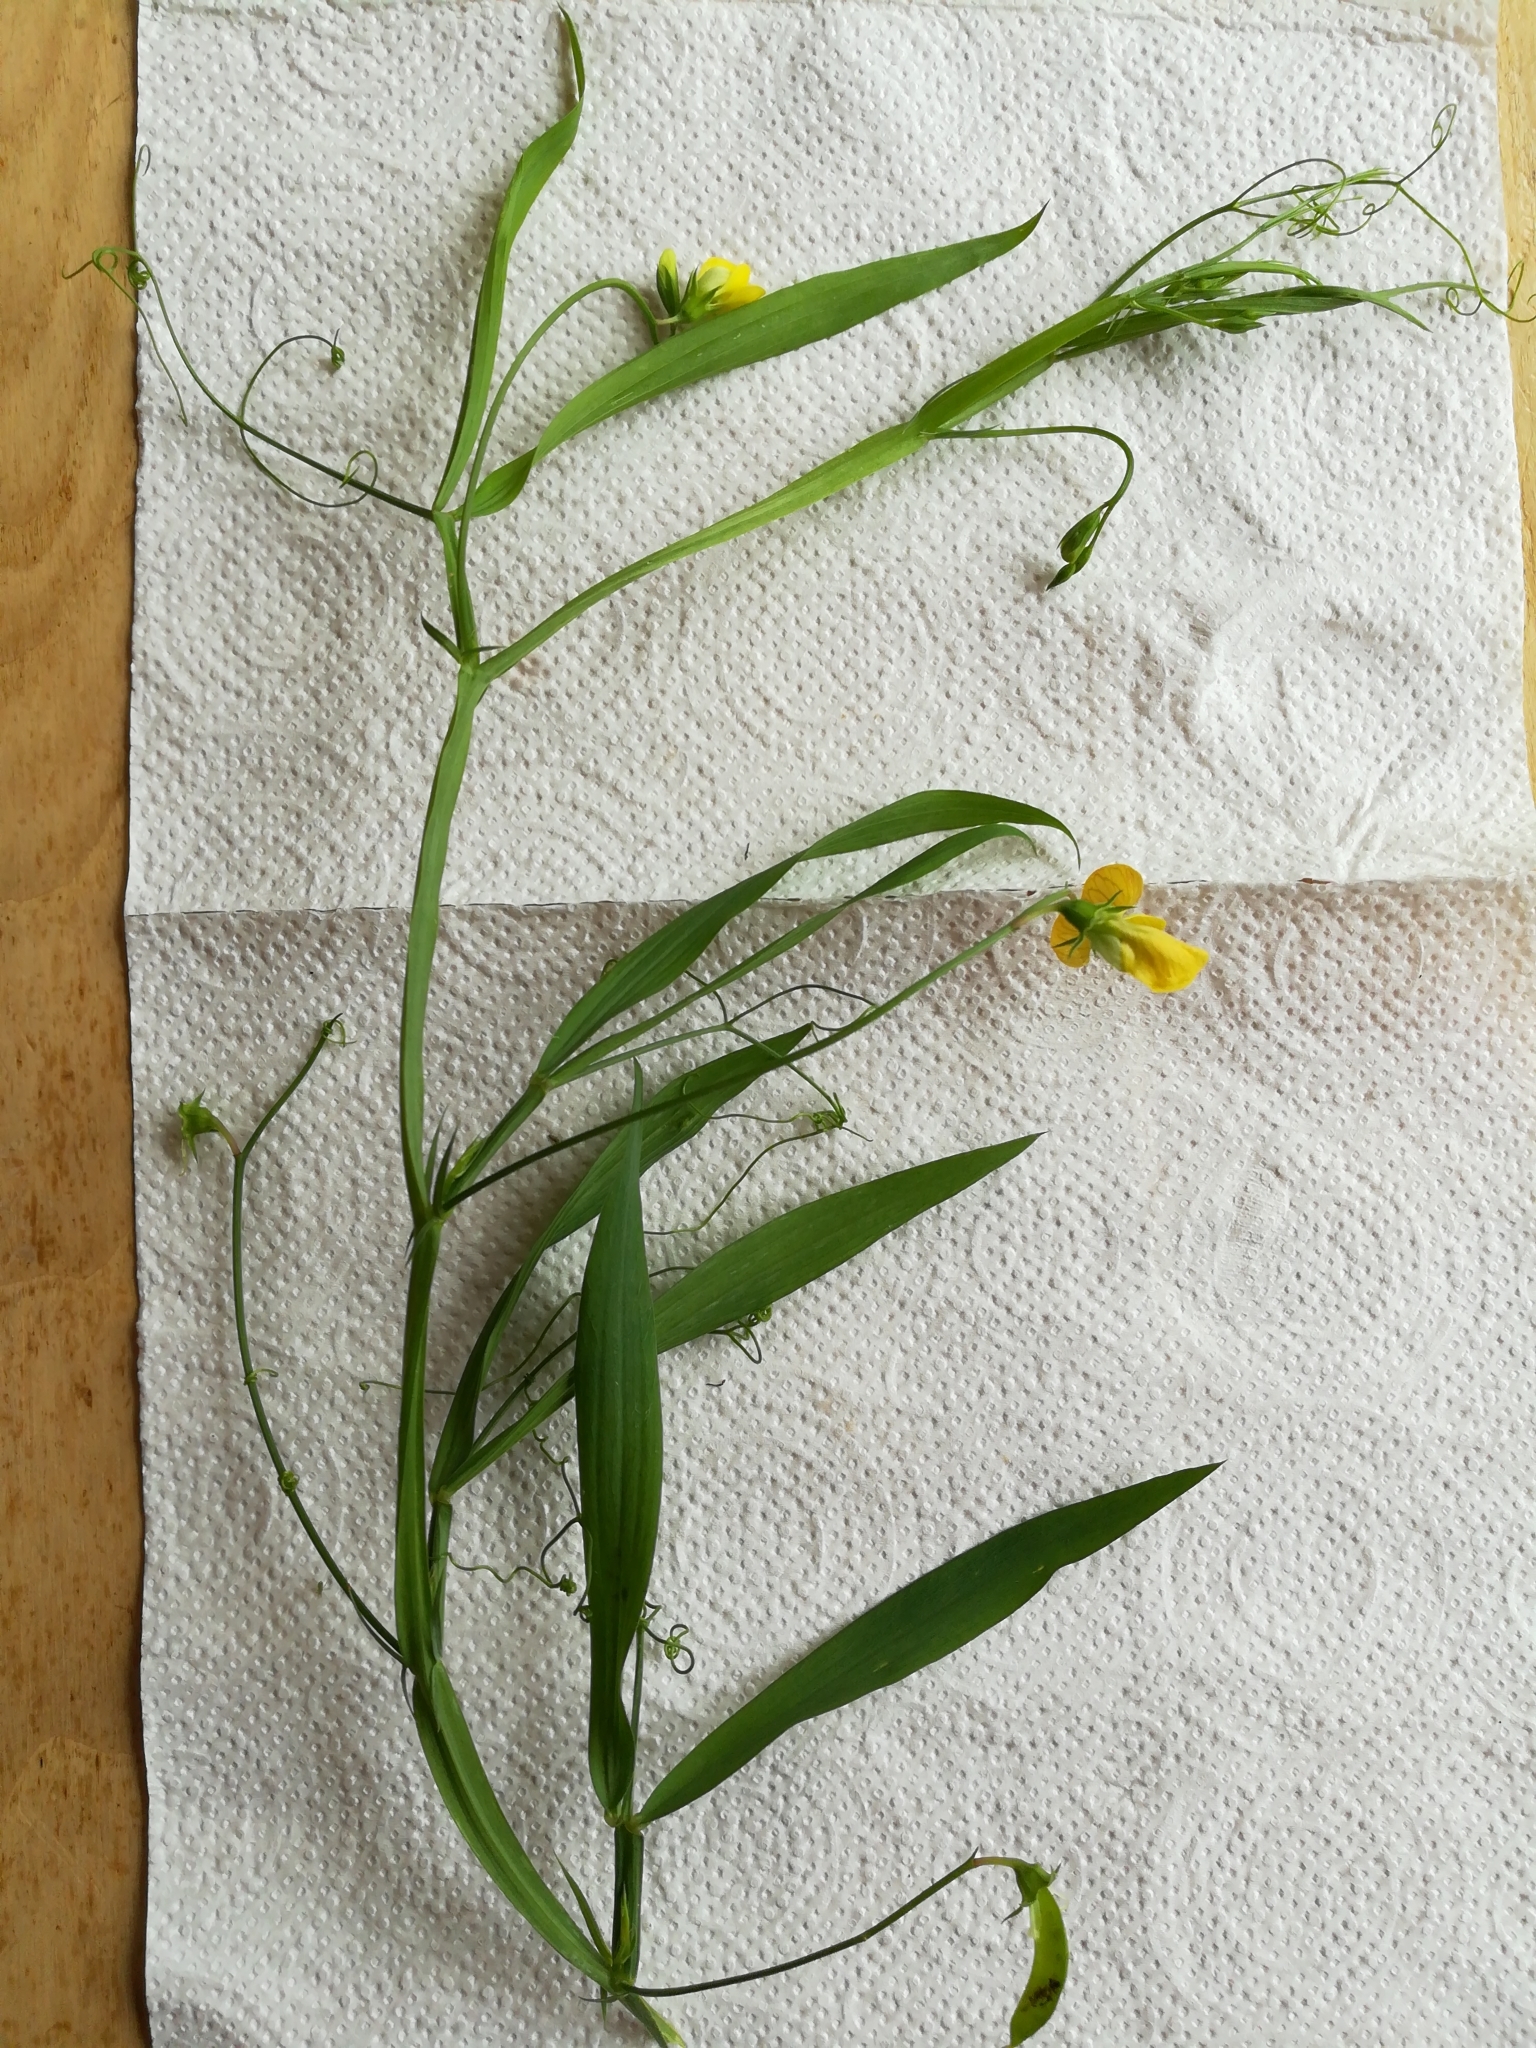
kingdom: Plantae
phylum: Tracheophyta
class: Magnoliopsida
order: Fabales
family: Fabaceae
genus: Lathyrus
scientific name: Lathyrus annuus
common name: Fodder pea
